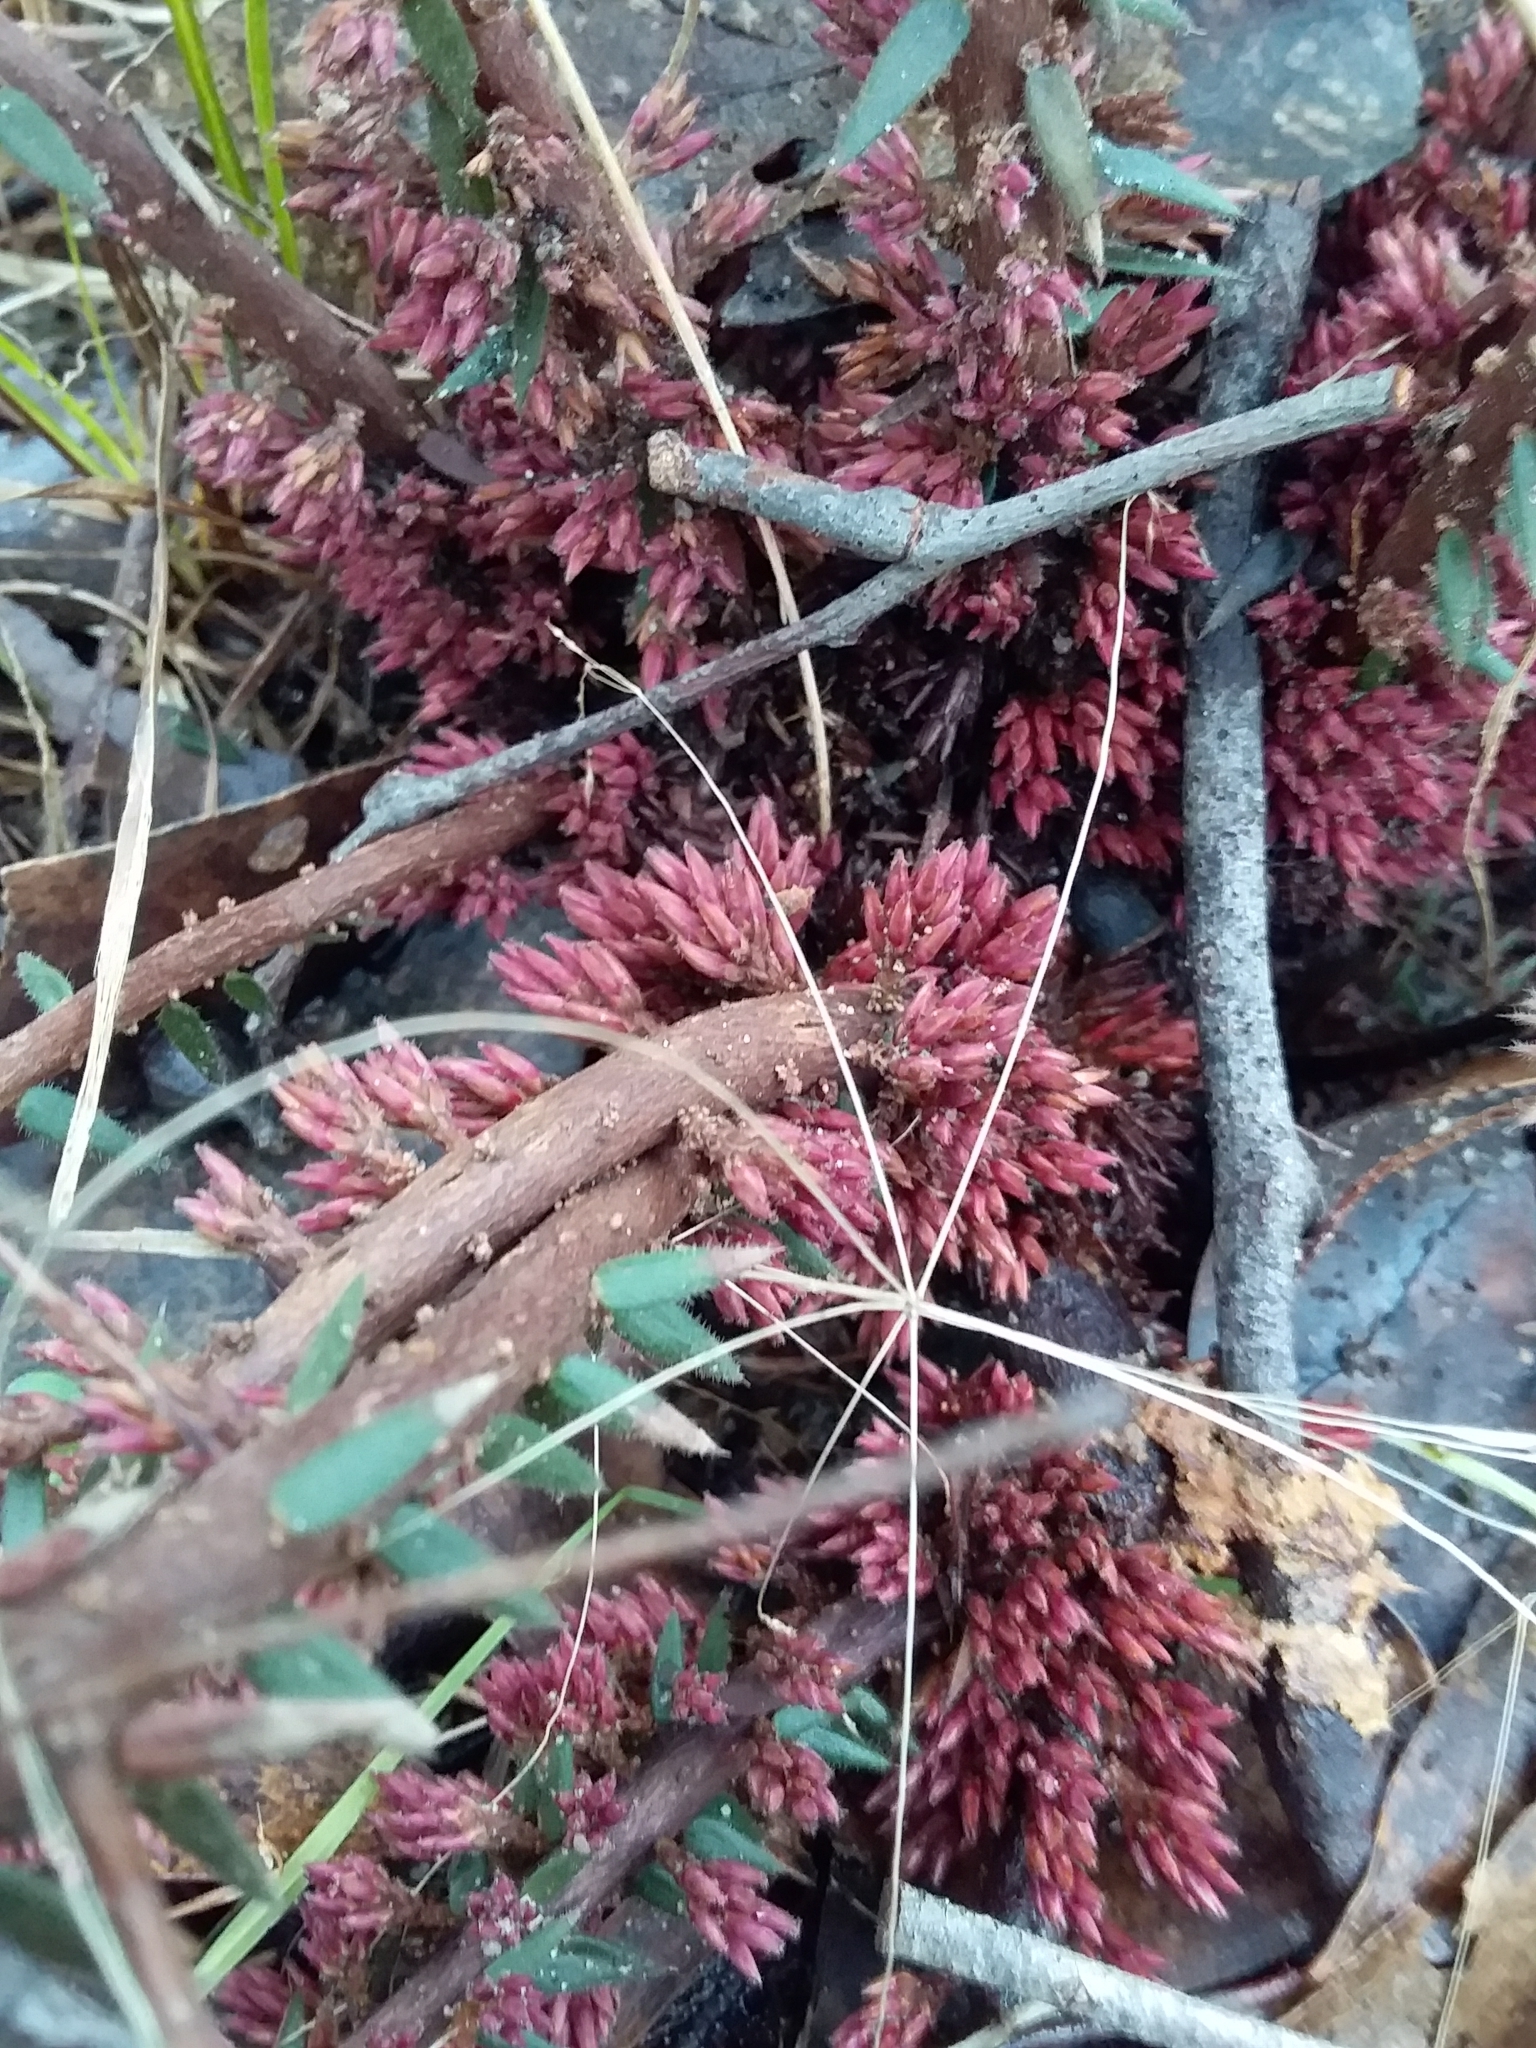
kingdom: Plantae
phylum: Tracheophyta
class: Magnoliopsida
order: Ericales
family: Ericaceae
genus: Acrotriche
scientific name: Acrotriche fasciculiflora
